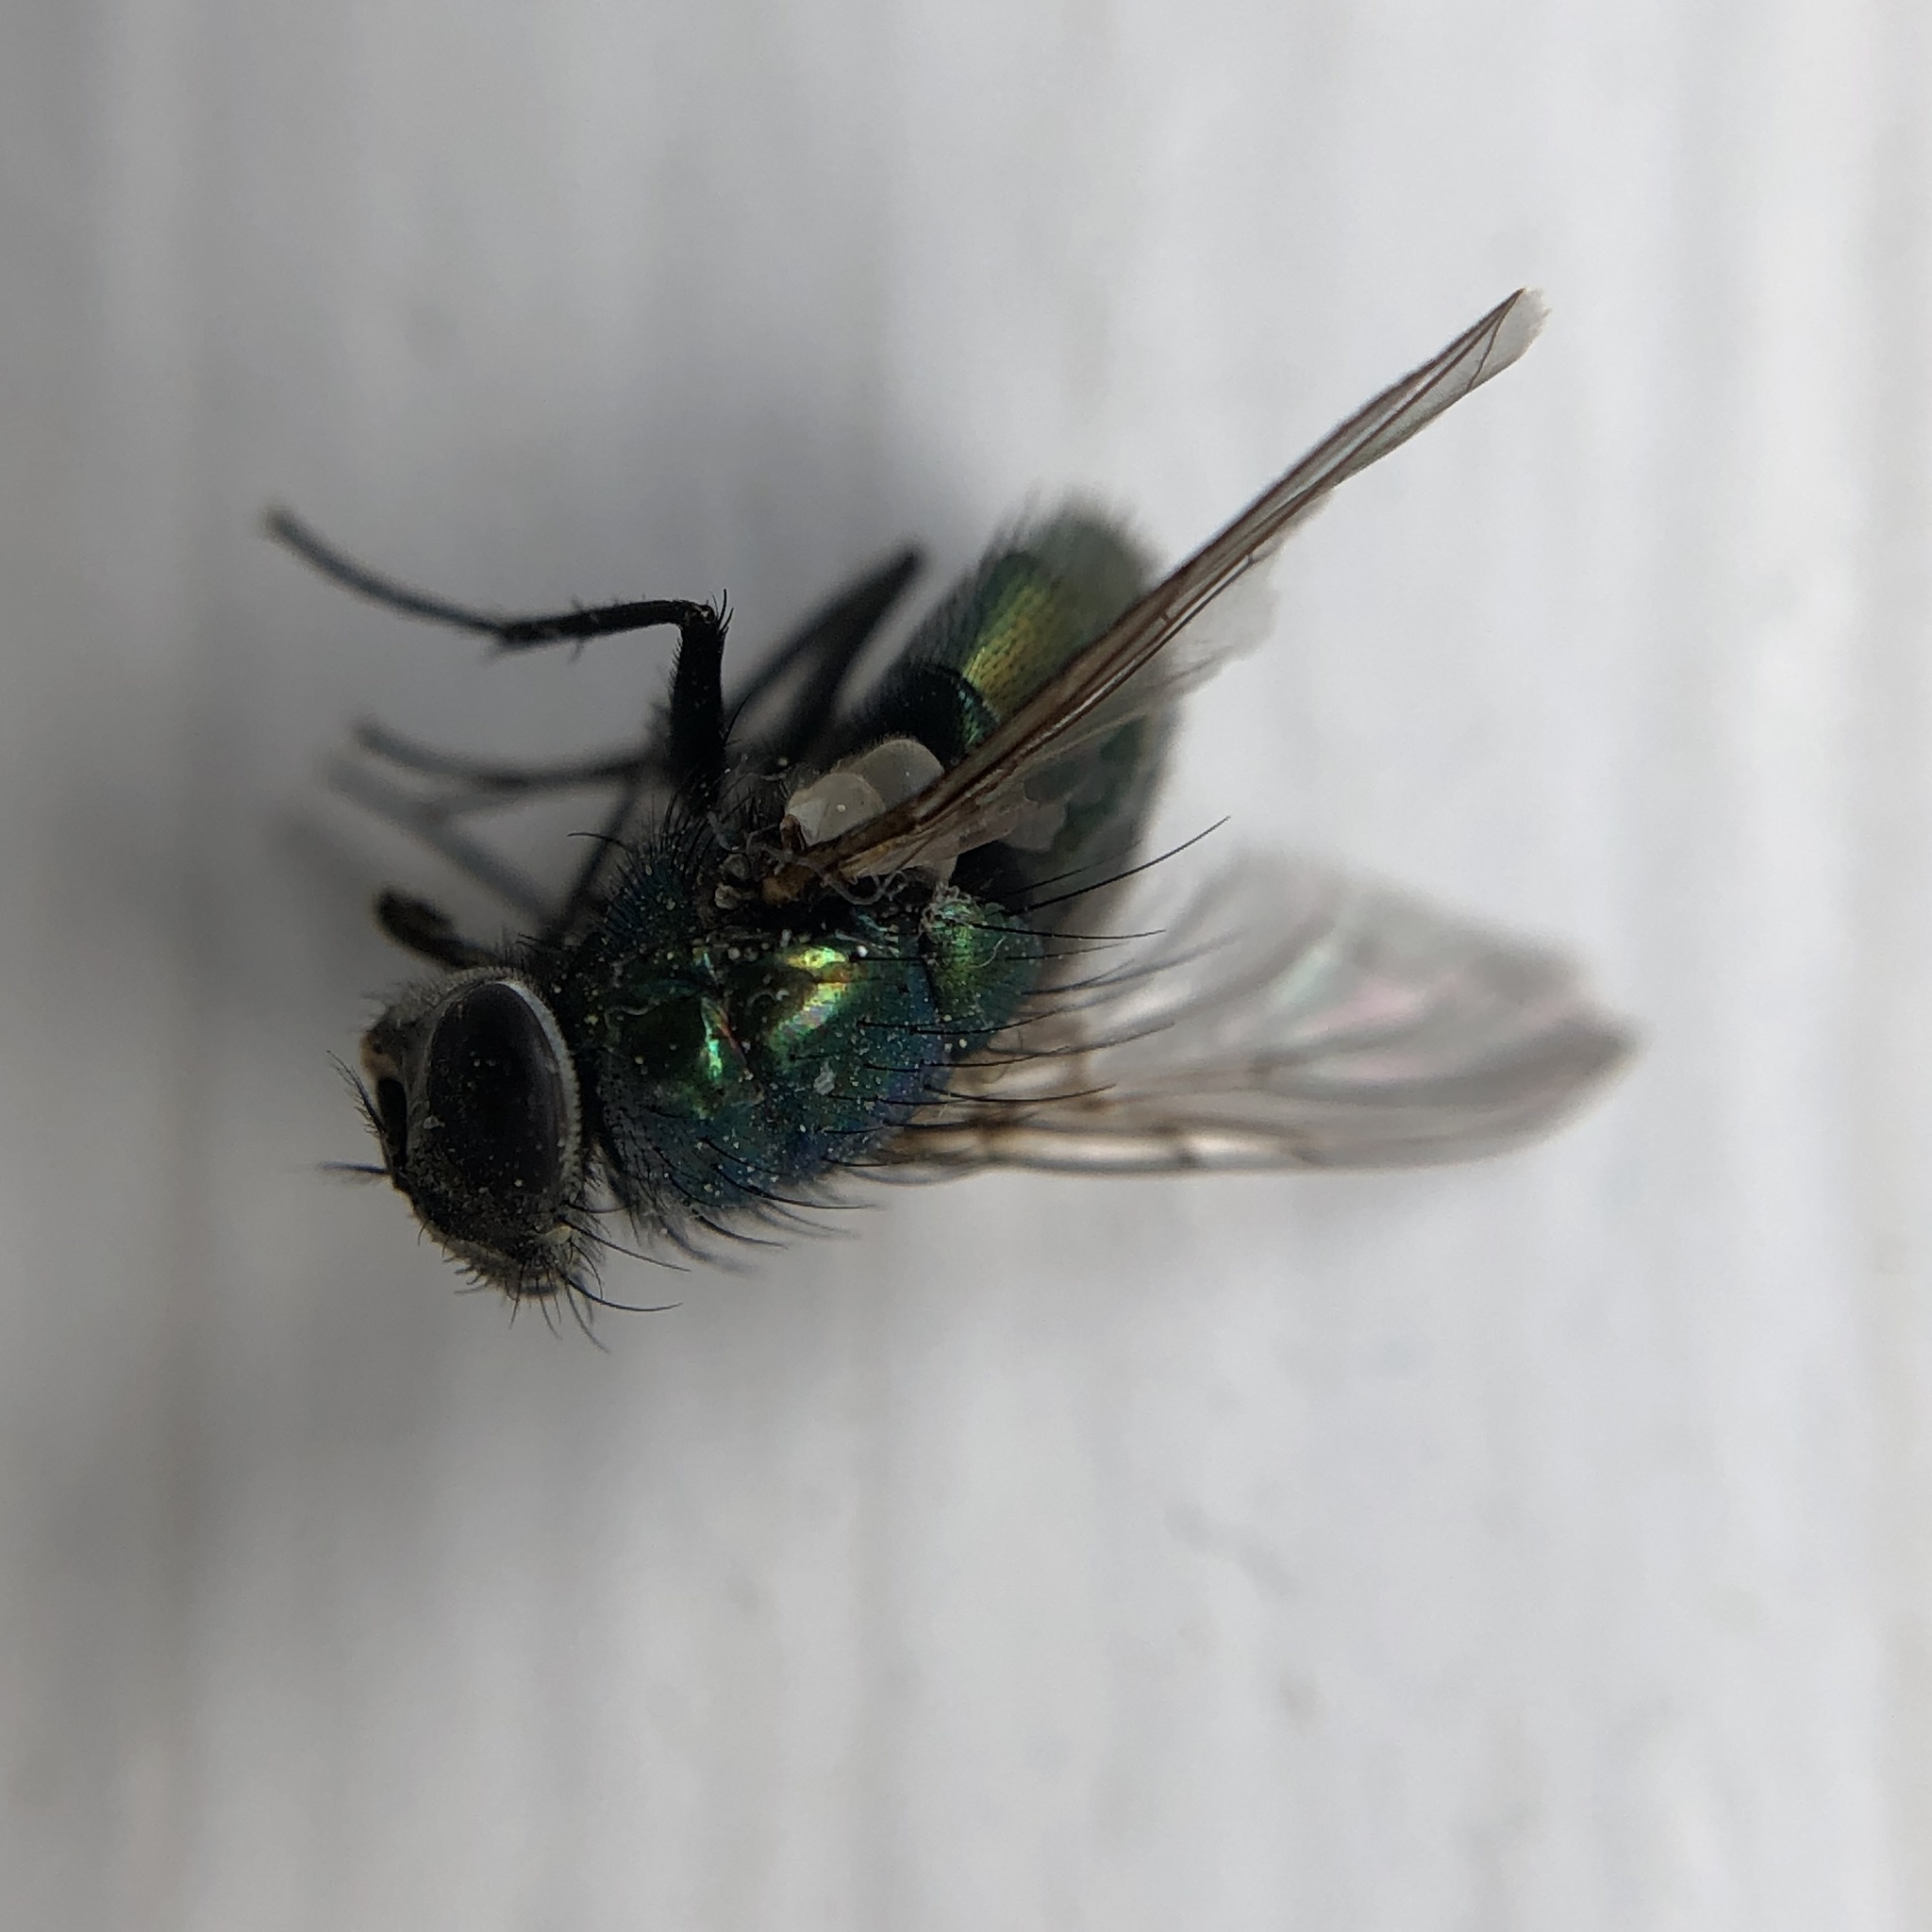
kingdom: Animalia
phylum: Arthropoda
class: Insecta
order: Diptera
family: Calliphoridae
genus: Lucilia
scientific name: Lucilia sericata
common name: Blow fly
